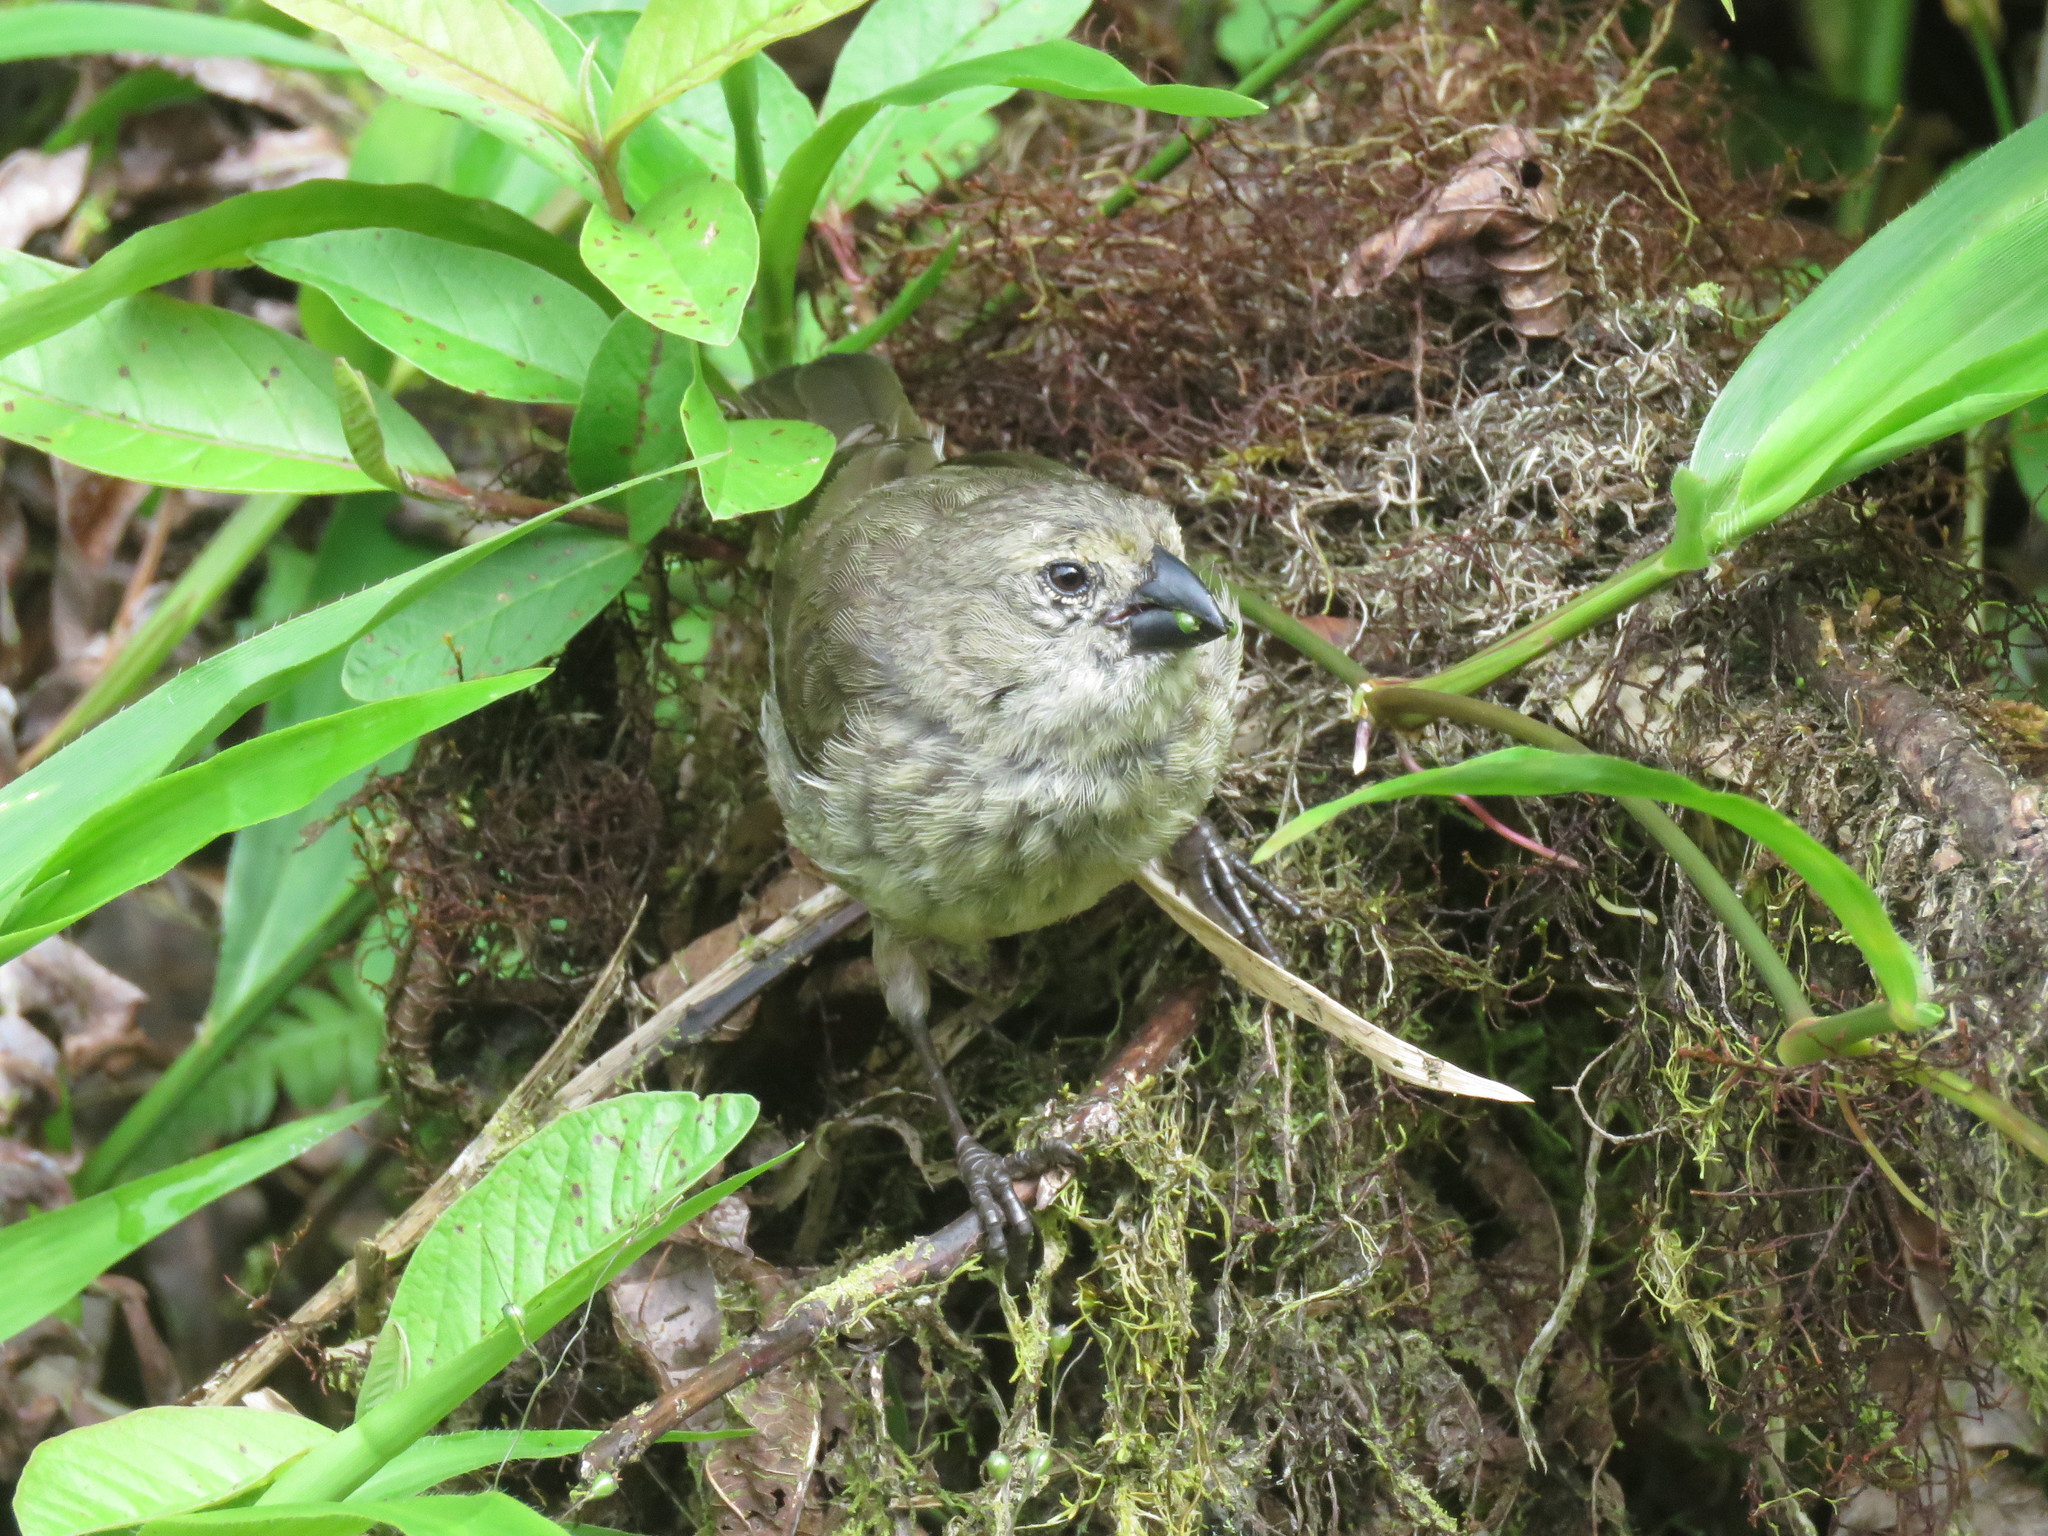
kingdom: Animalia
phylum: Chordata
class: Aves
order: Passeriformes
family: Thraupidae
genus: Camarhynchus
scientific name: Camarhynchus parvulus
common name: Small tree finch
